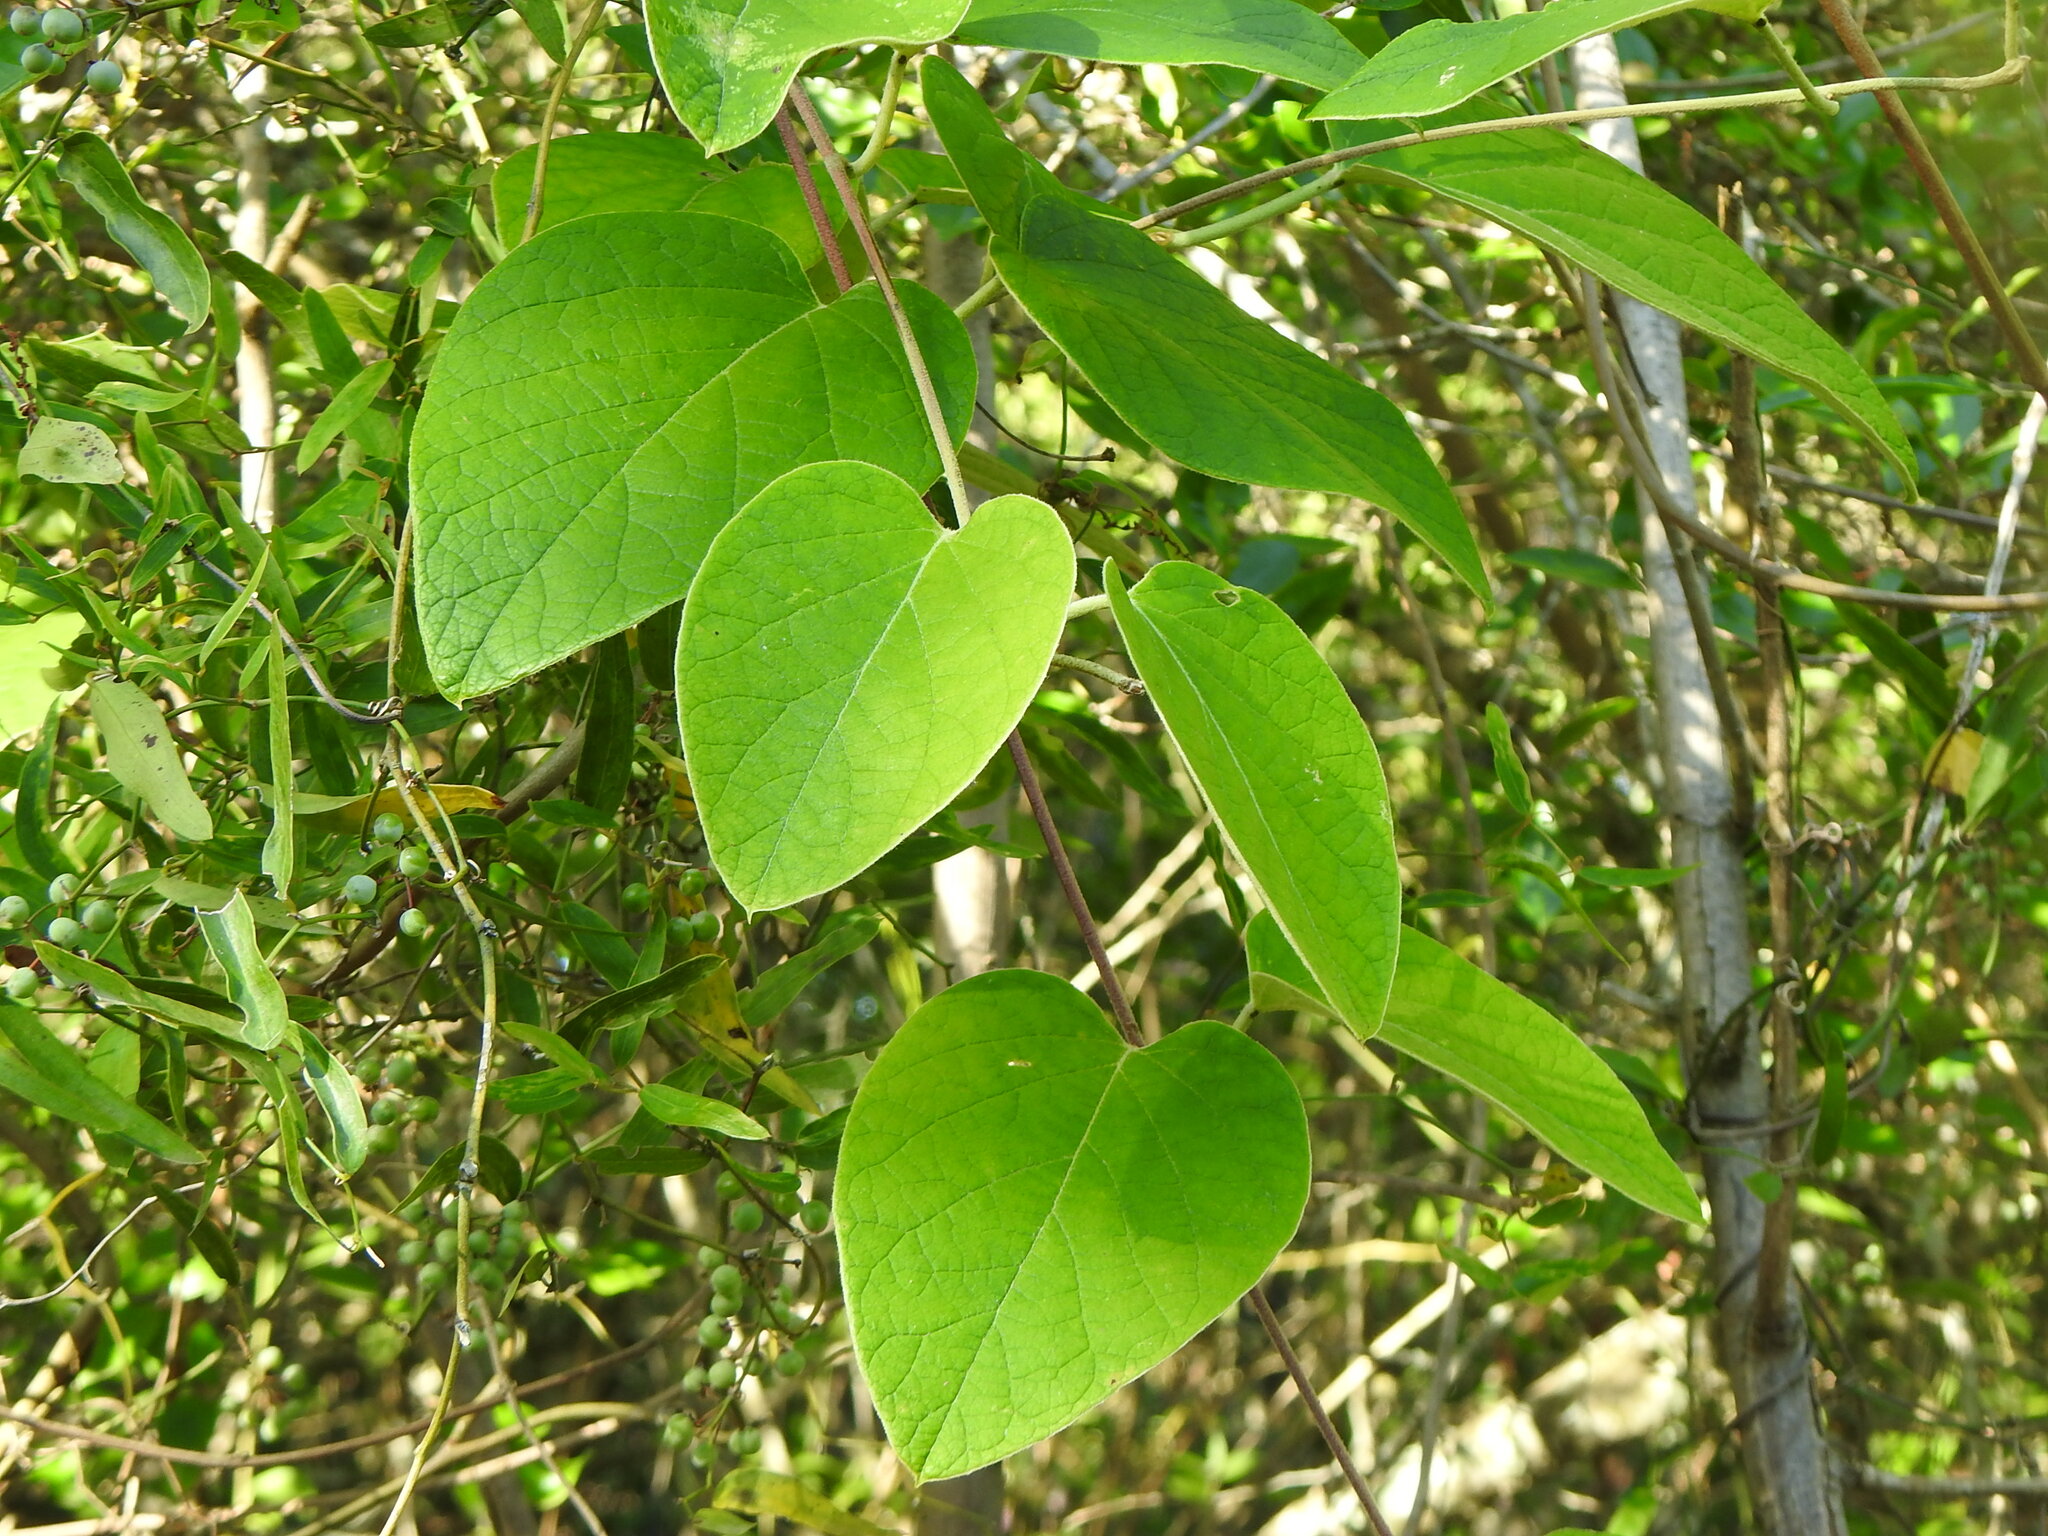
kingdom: Plantae
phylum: Tracheophyta
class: Magnoliopsida
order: Malpighiales
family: Malpighiaceae
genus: Stigmaphyllon
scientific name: Stigmaphyllon bonariense
